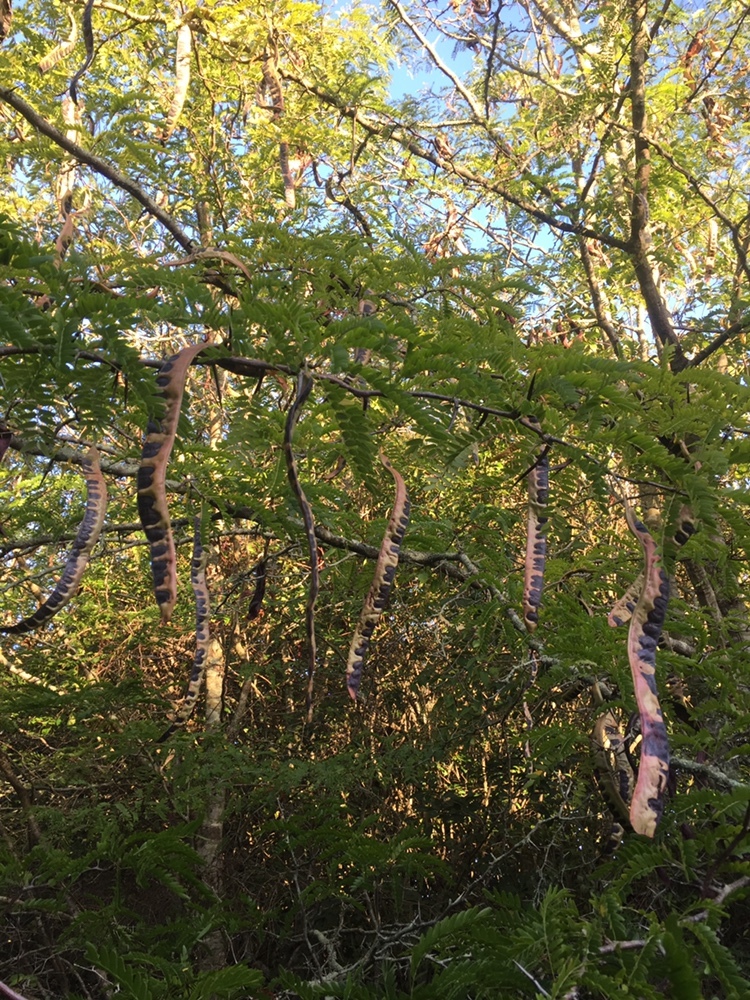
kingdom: Plantae
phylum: Tracheophyta
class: Magnoliopsida
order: Fabales
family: Fabaceae
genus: Gleditsia
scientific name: Gleditsia triacanthos
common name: Common honeylocust
